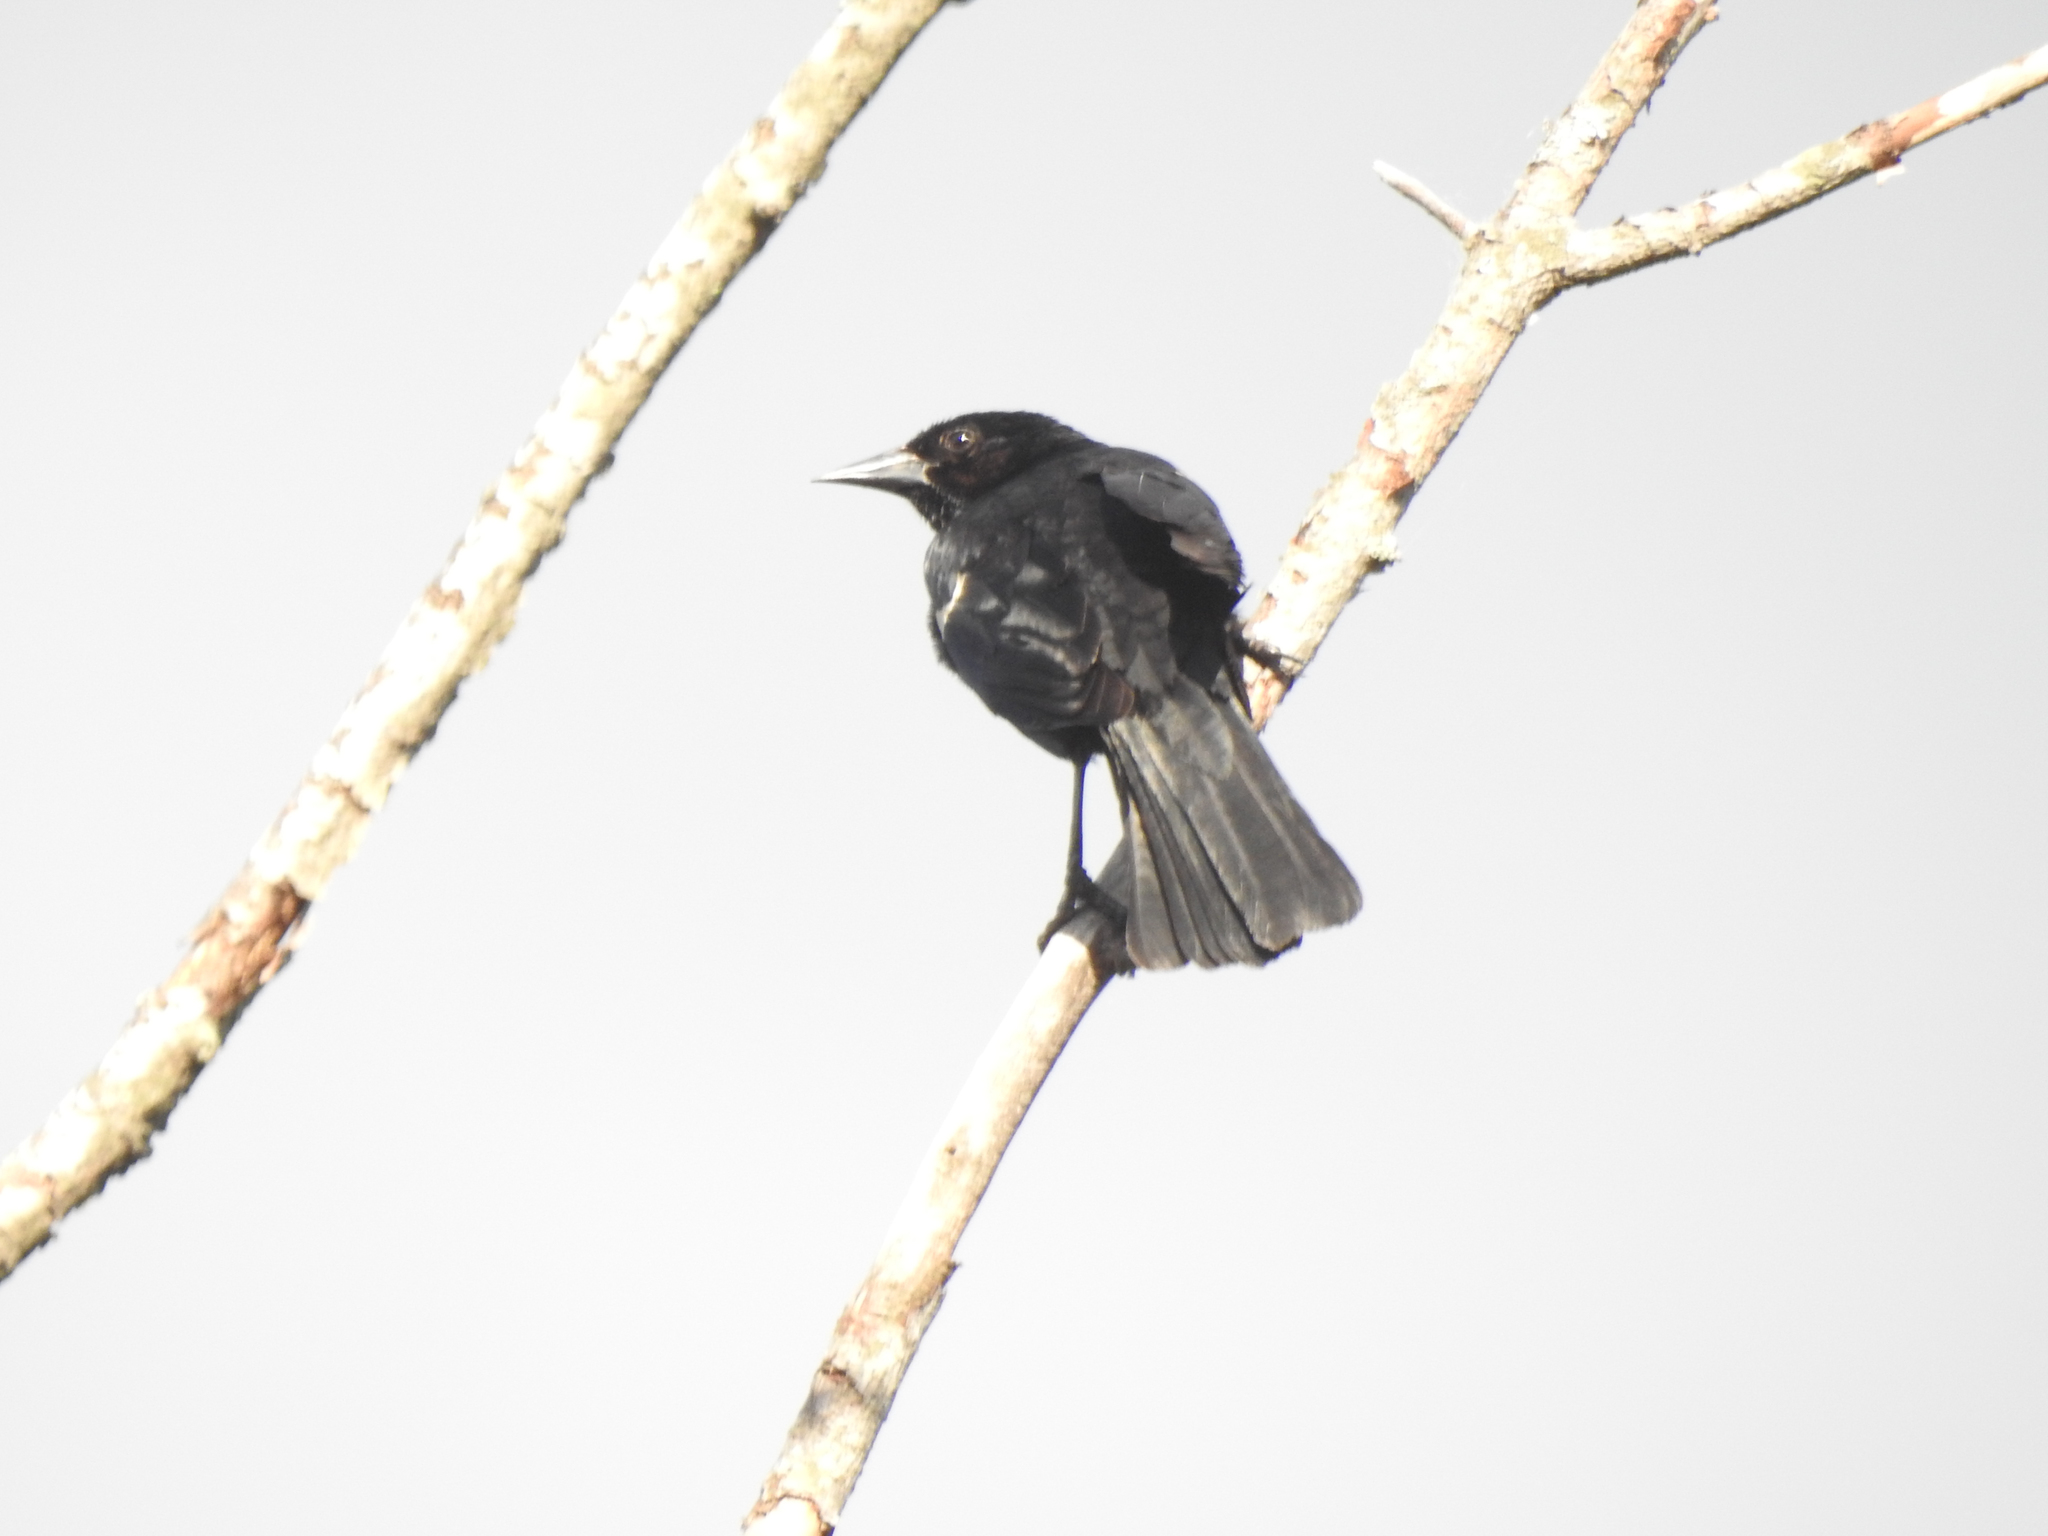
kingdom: Animalia
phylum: Chordata
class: Aves
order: Passeriformes
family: Icteridae
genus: Agelaius
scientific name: Agelaius phoeniceus
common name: Red-winged blackbird
